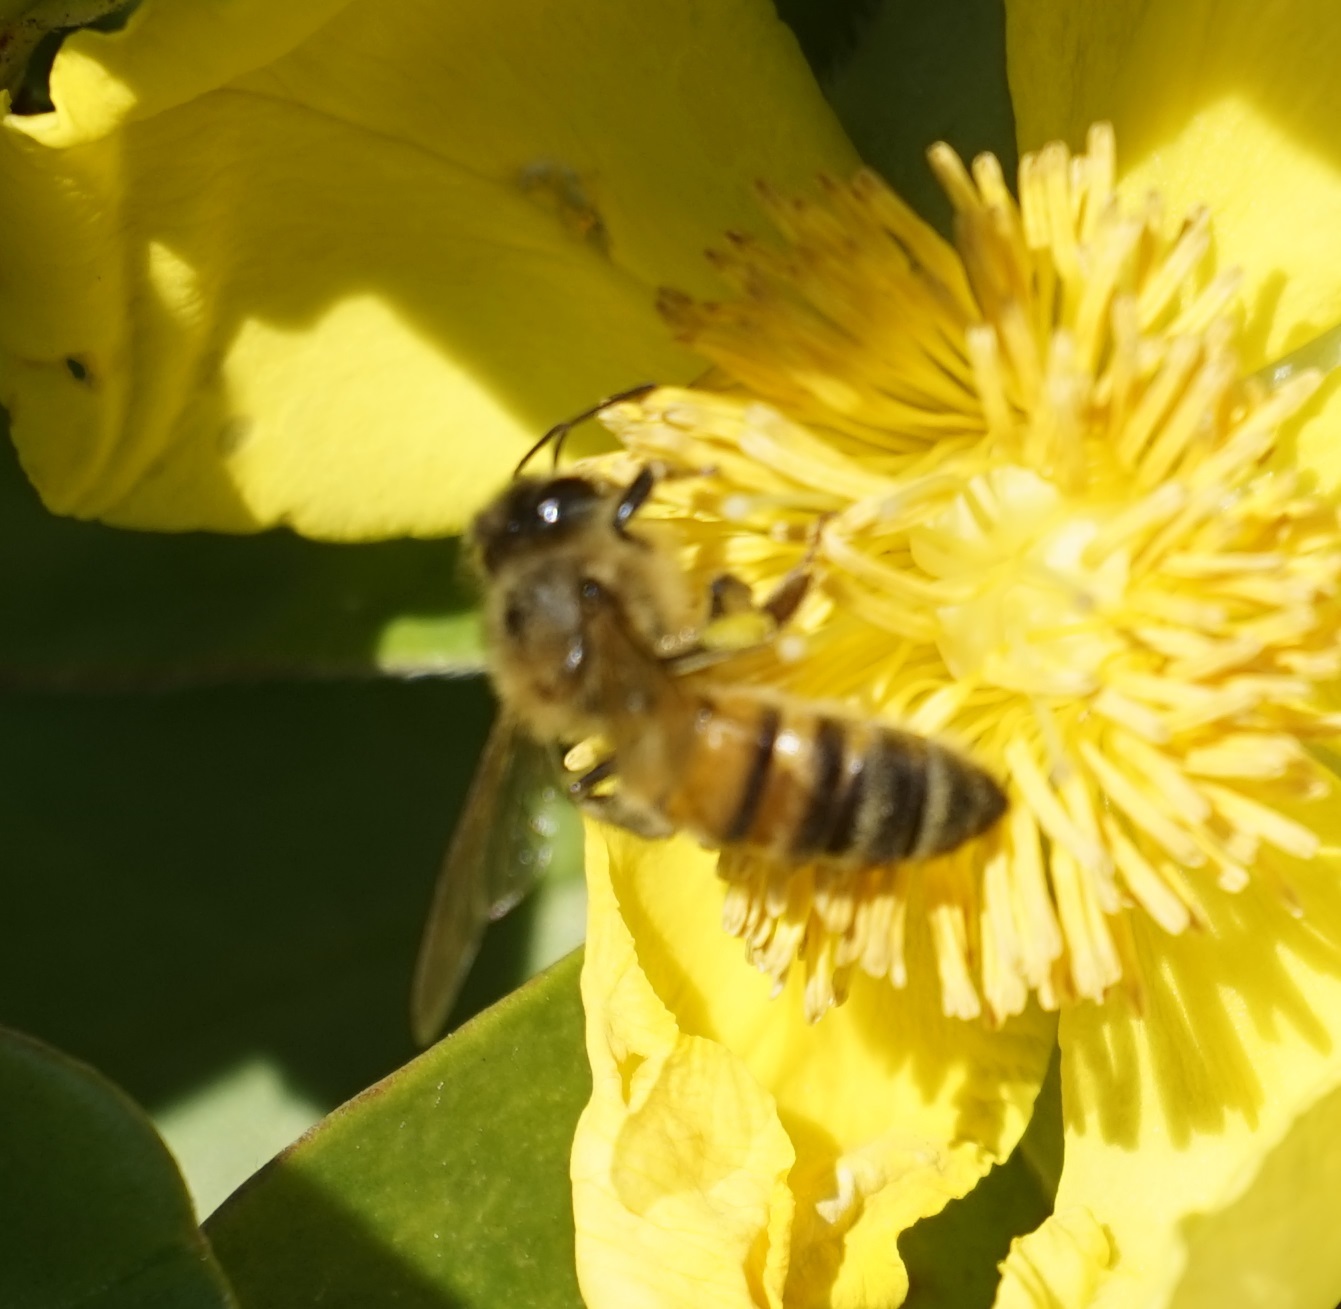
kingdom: Animalia
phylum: Arthropoda
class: Insecta
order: Hymenoptera
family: Apidae
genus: Apis
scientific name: Apis mellifera
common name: Honey bee
